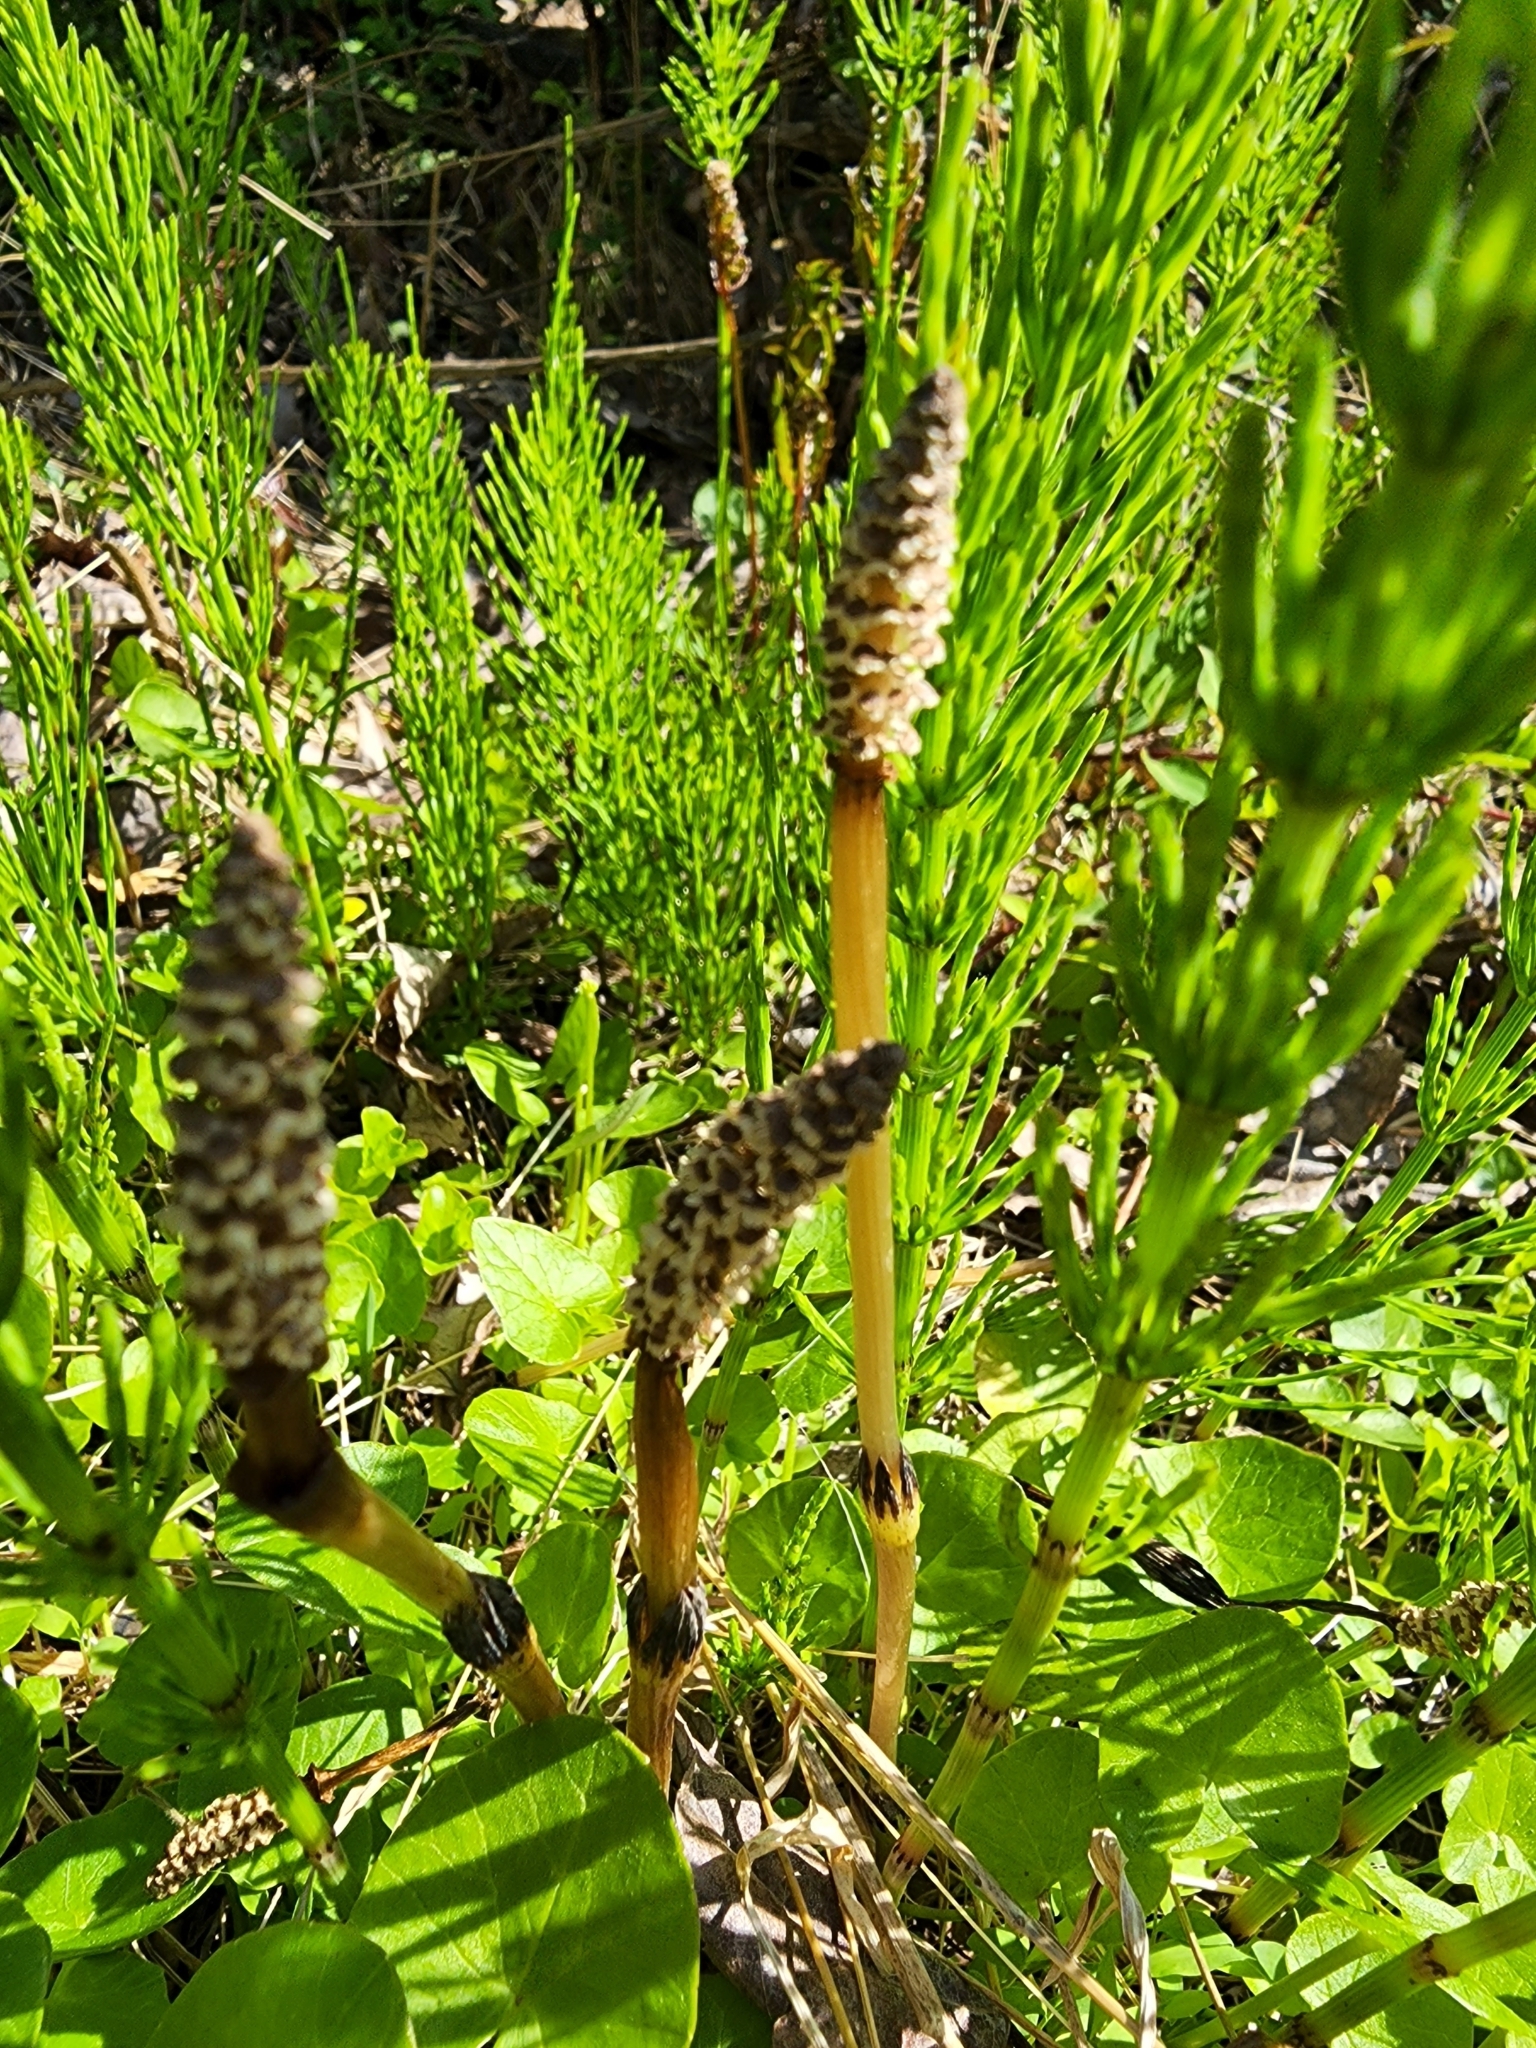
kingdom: Plantae
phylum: Tracheophyta
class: Polypodiopsida
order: Equisetales
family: Equisetaceae
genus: Equisetum
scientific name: Equisetum arvense
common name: Field horsetail
